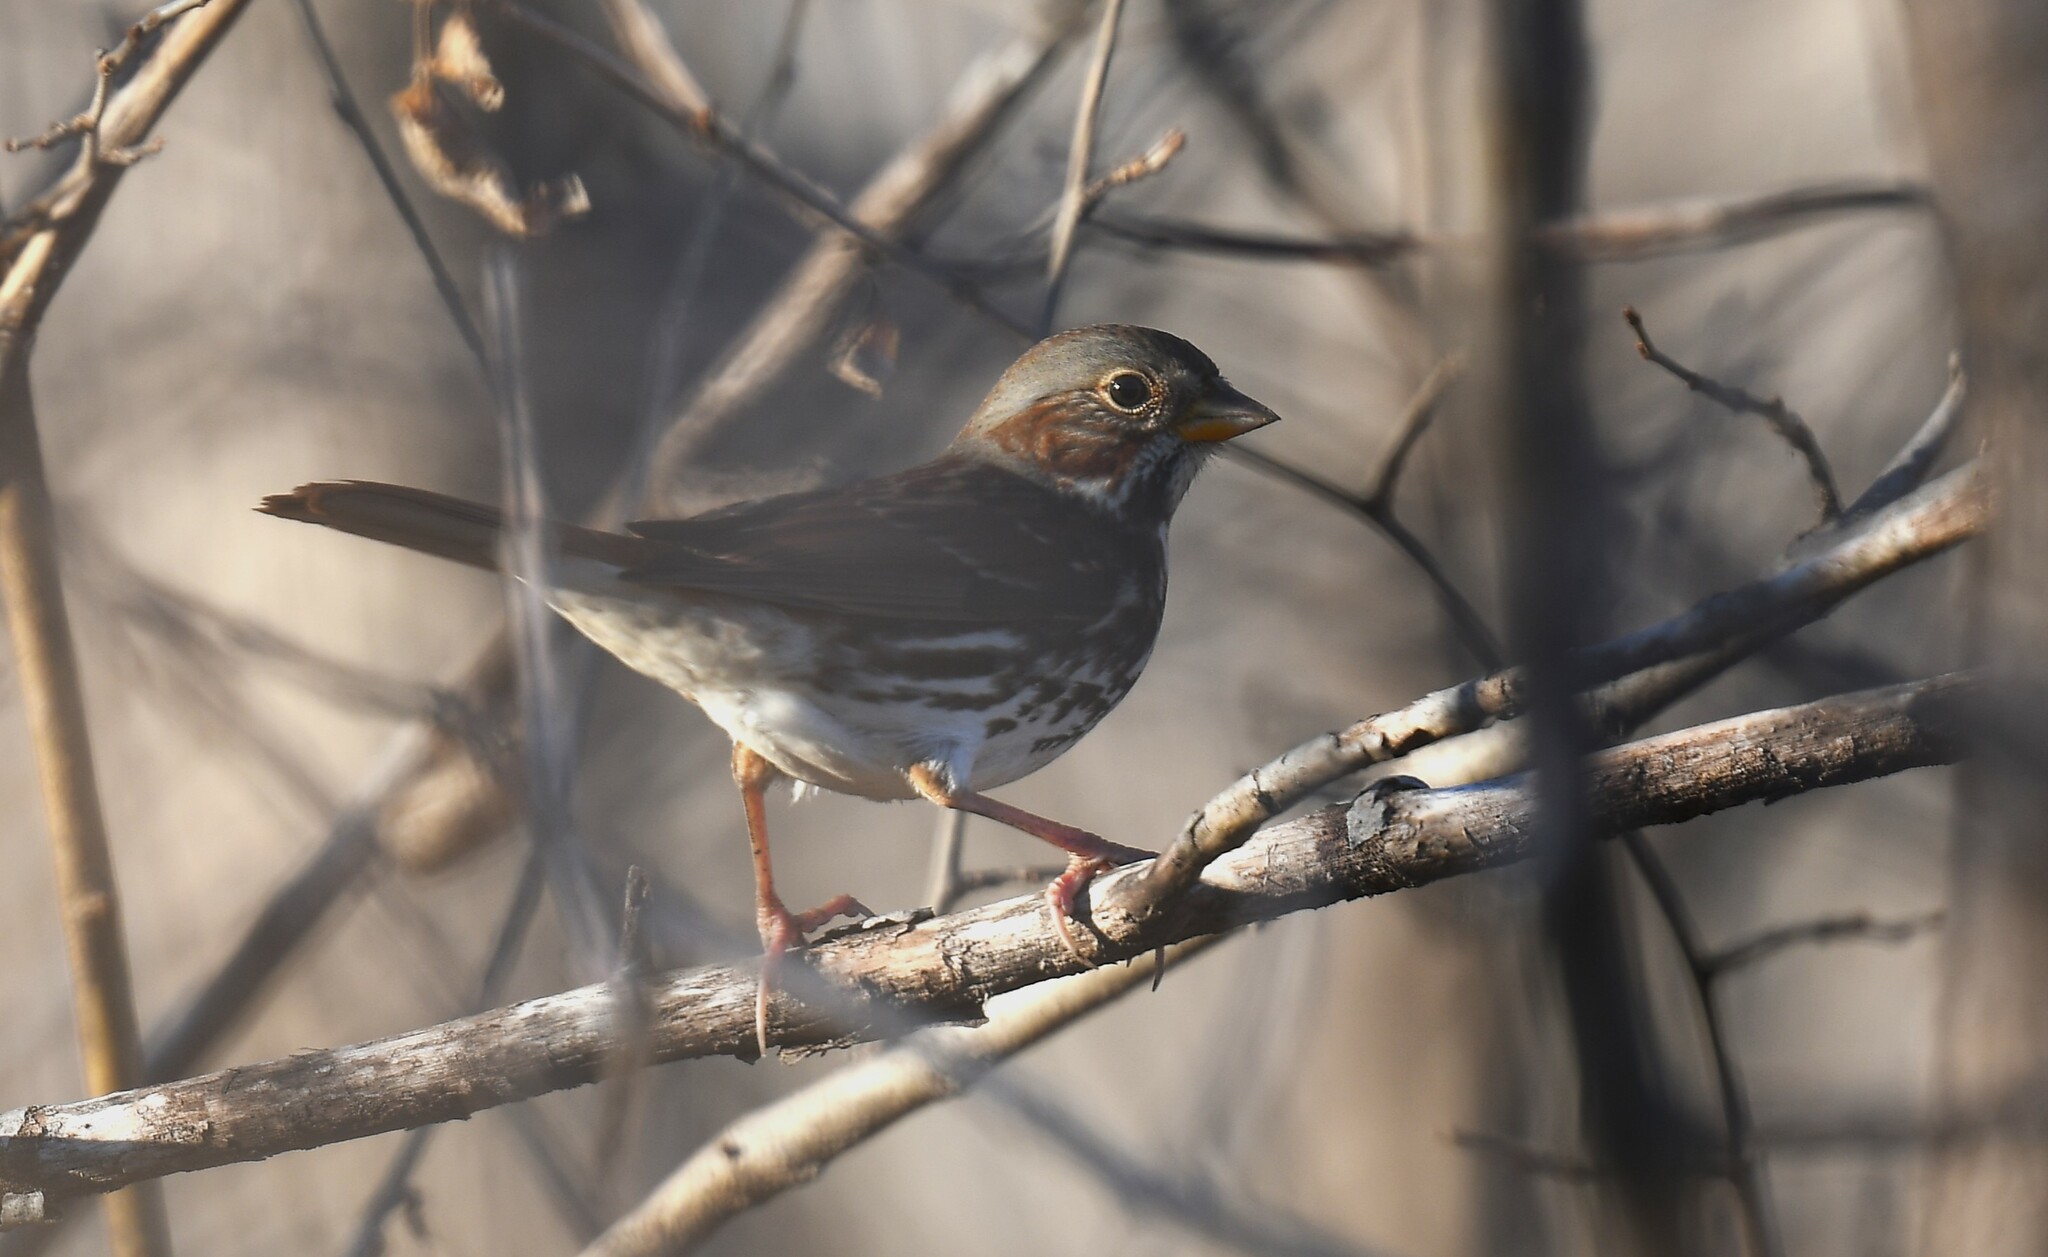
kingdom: Animalia
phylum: Chordata
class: Aves
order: Passeriformes
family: Passerellidae
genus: Passerella
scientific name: Passerella iliaca
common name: Fox sparrow
